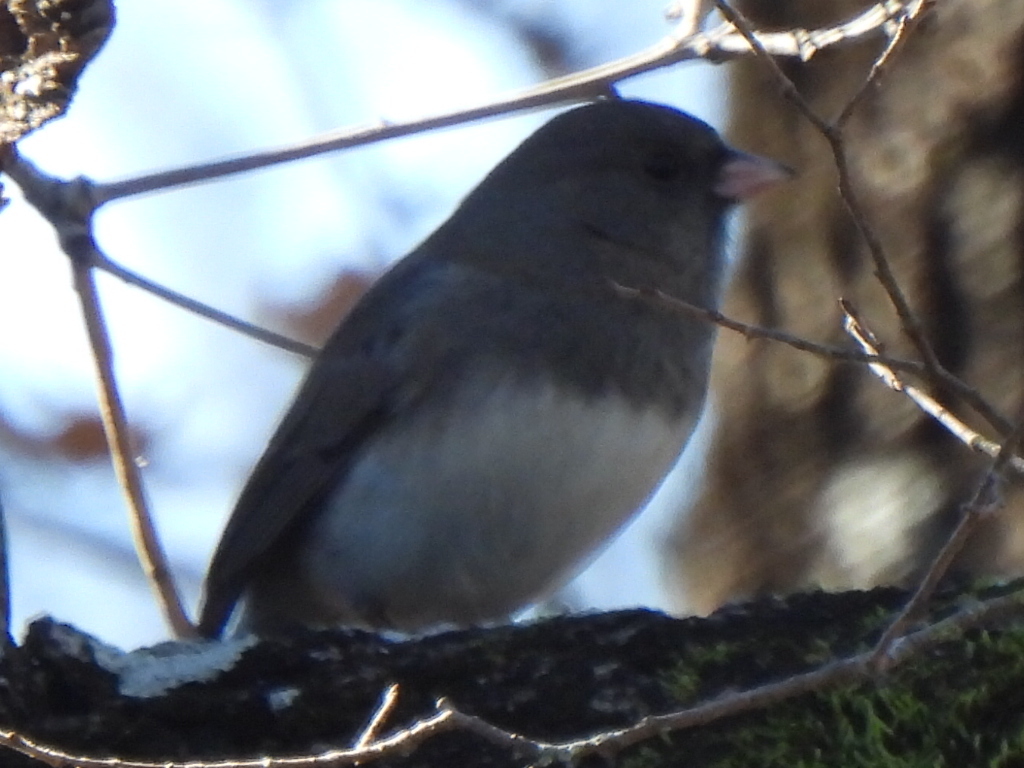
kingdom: Animalia
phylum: Chordata
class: Aves
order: Passeriformes
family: Passerellidae
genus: Junco
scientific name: Junco hyemalis
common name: Dark-eyed junco
